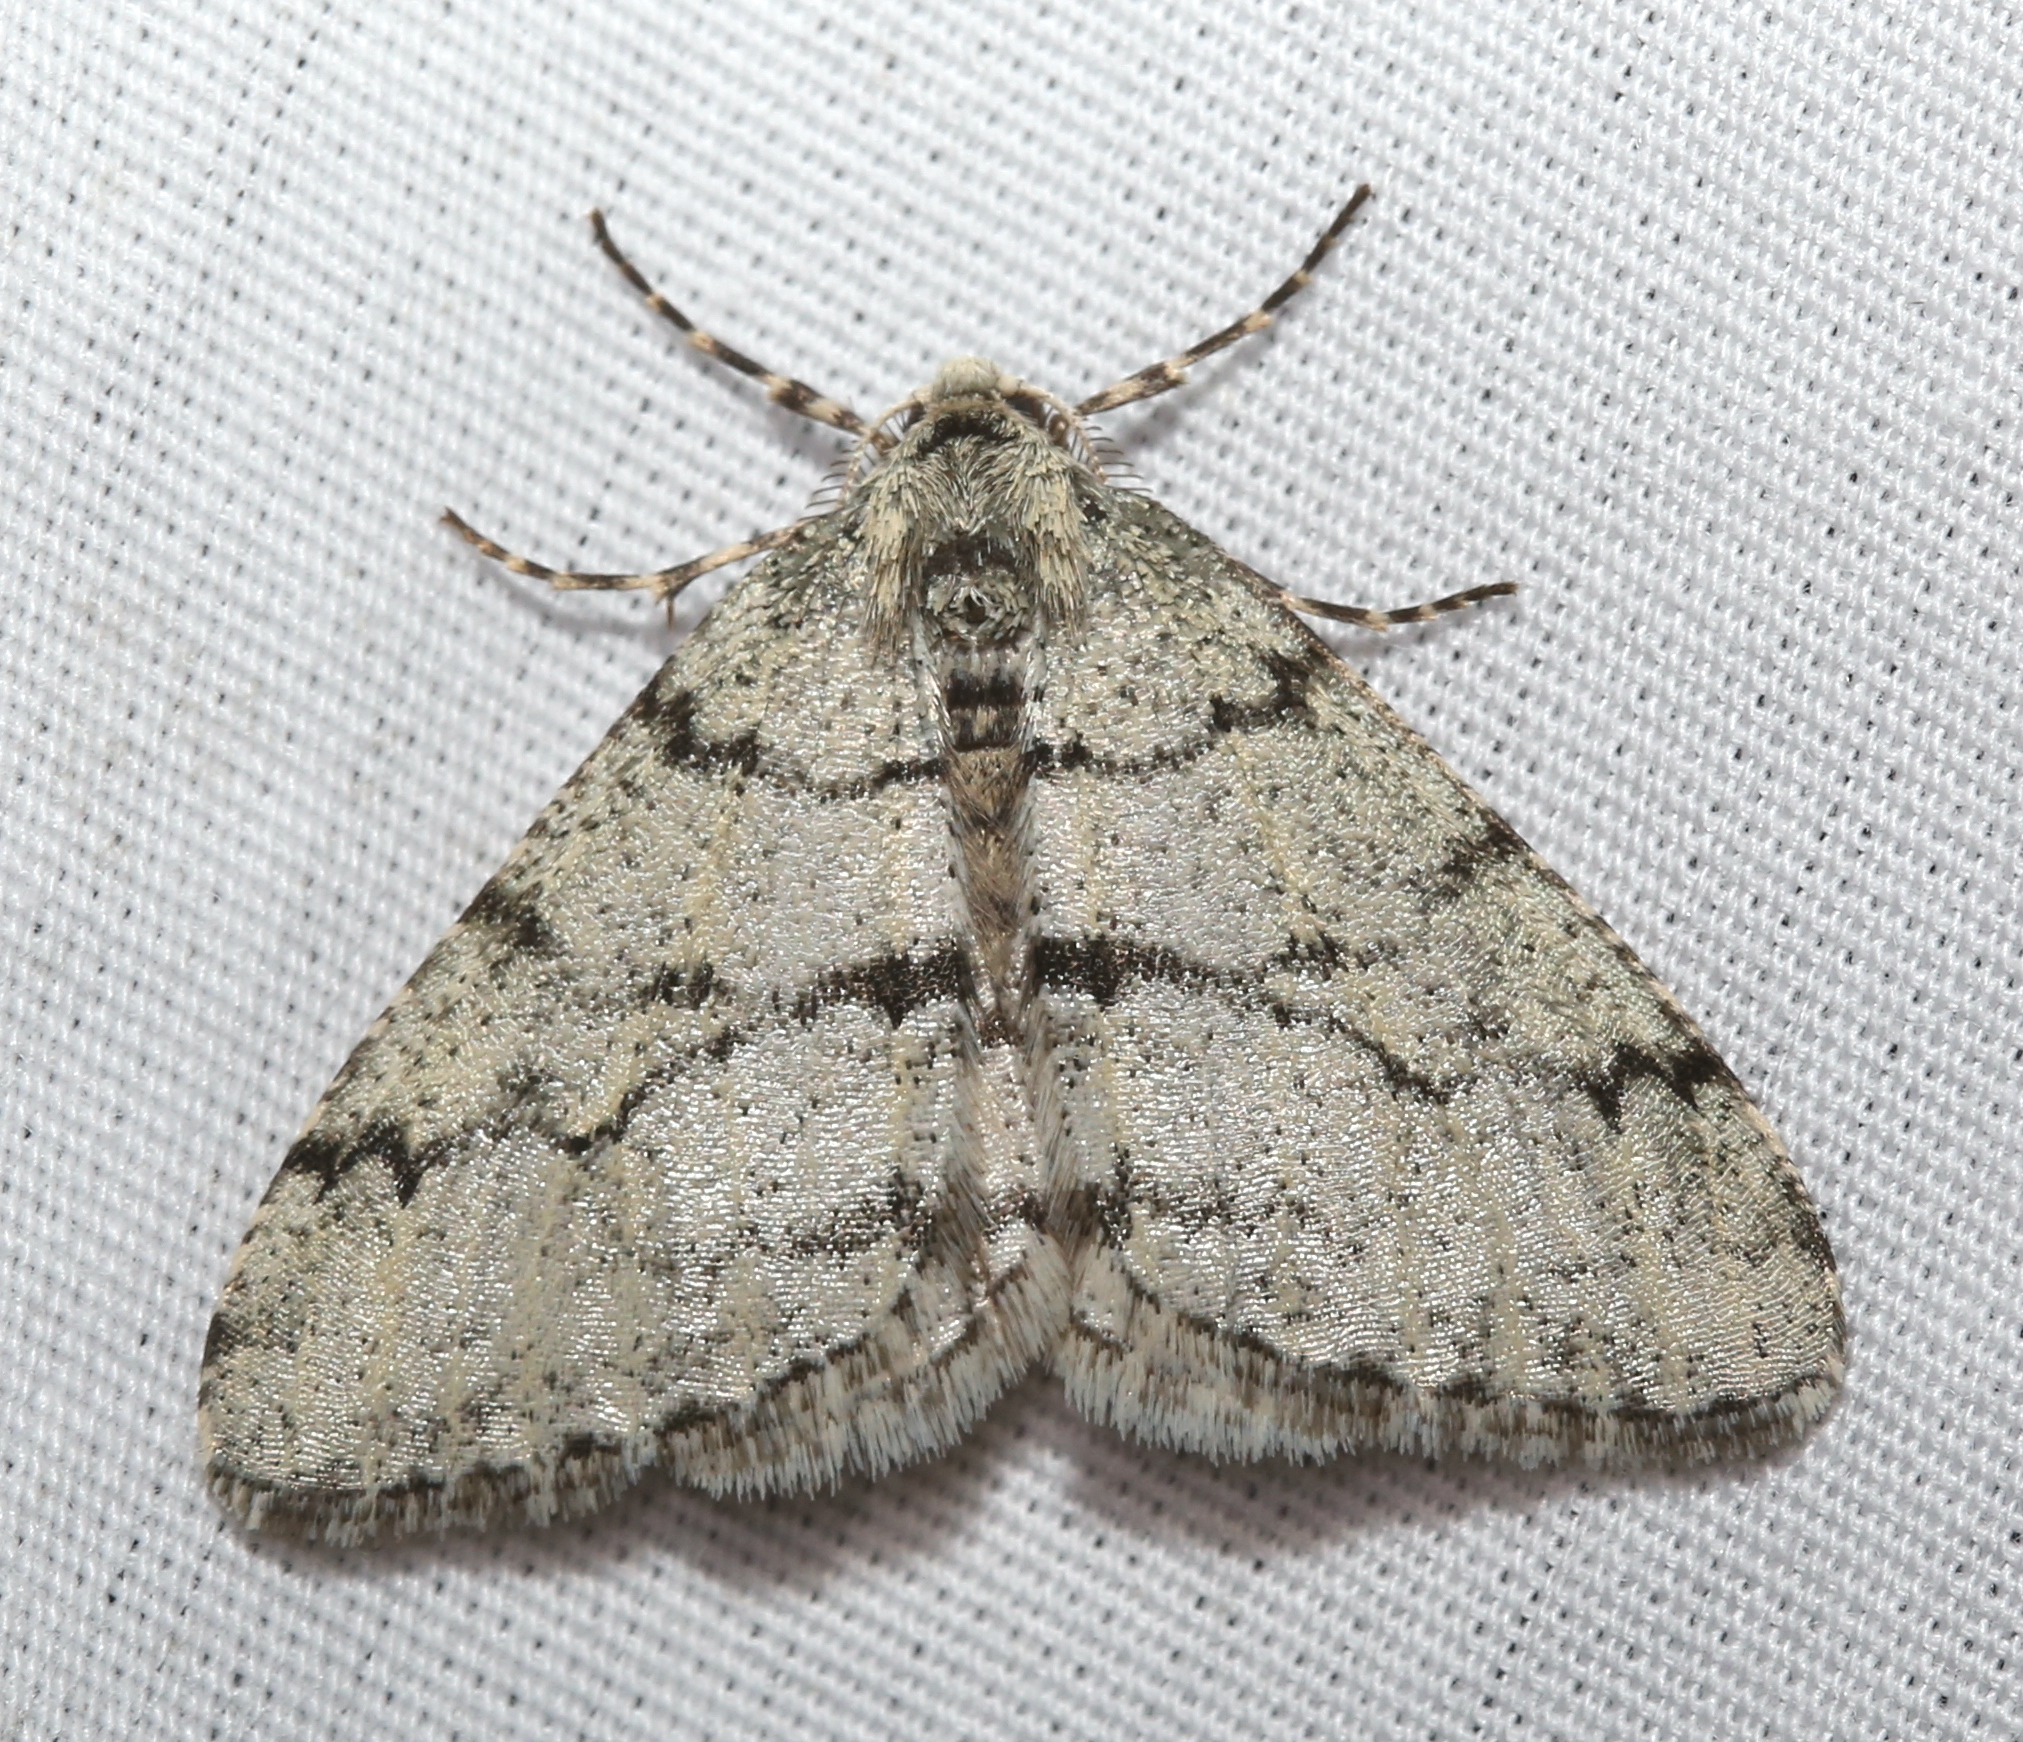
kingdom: Animalia
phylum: Arthropoda
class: Insecta
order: Lepidoptera
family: Geometridae
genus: Phigalia
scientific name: Phigalia strigataria
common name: Small phigalia
